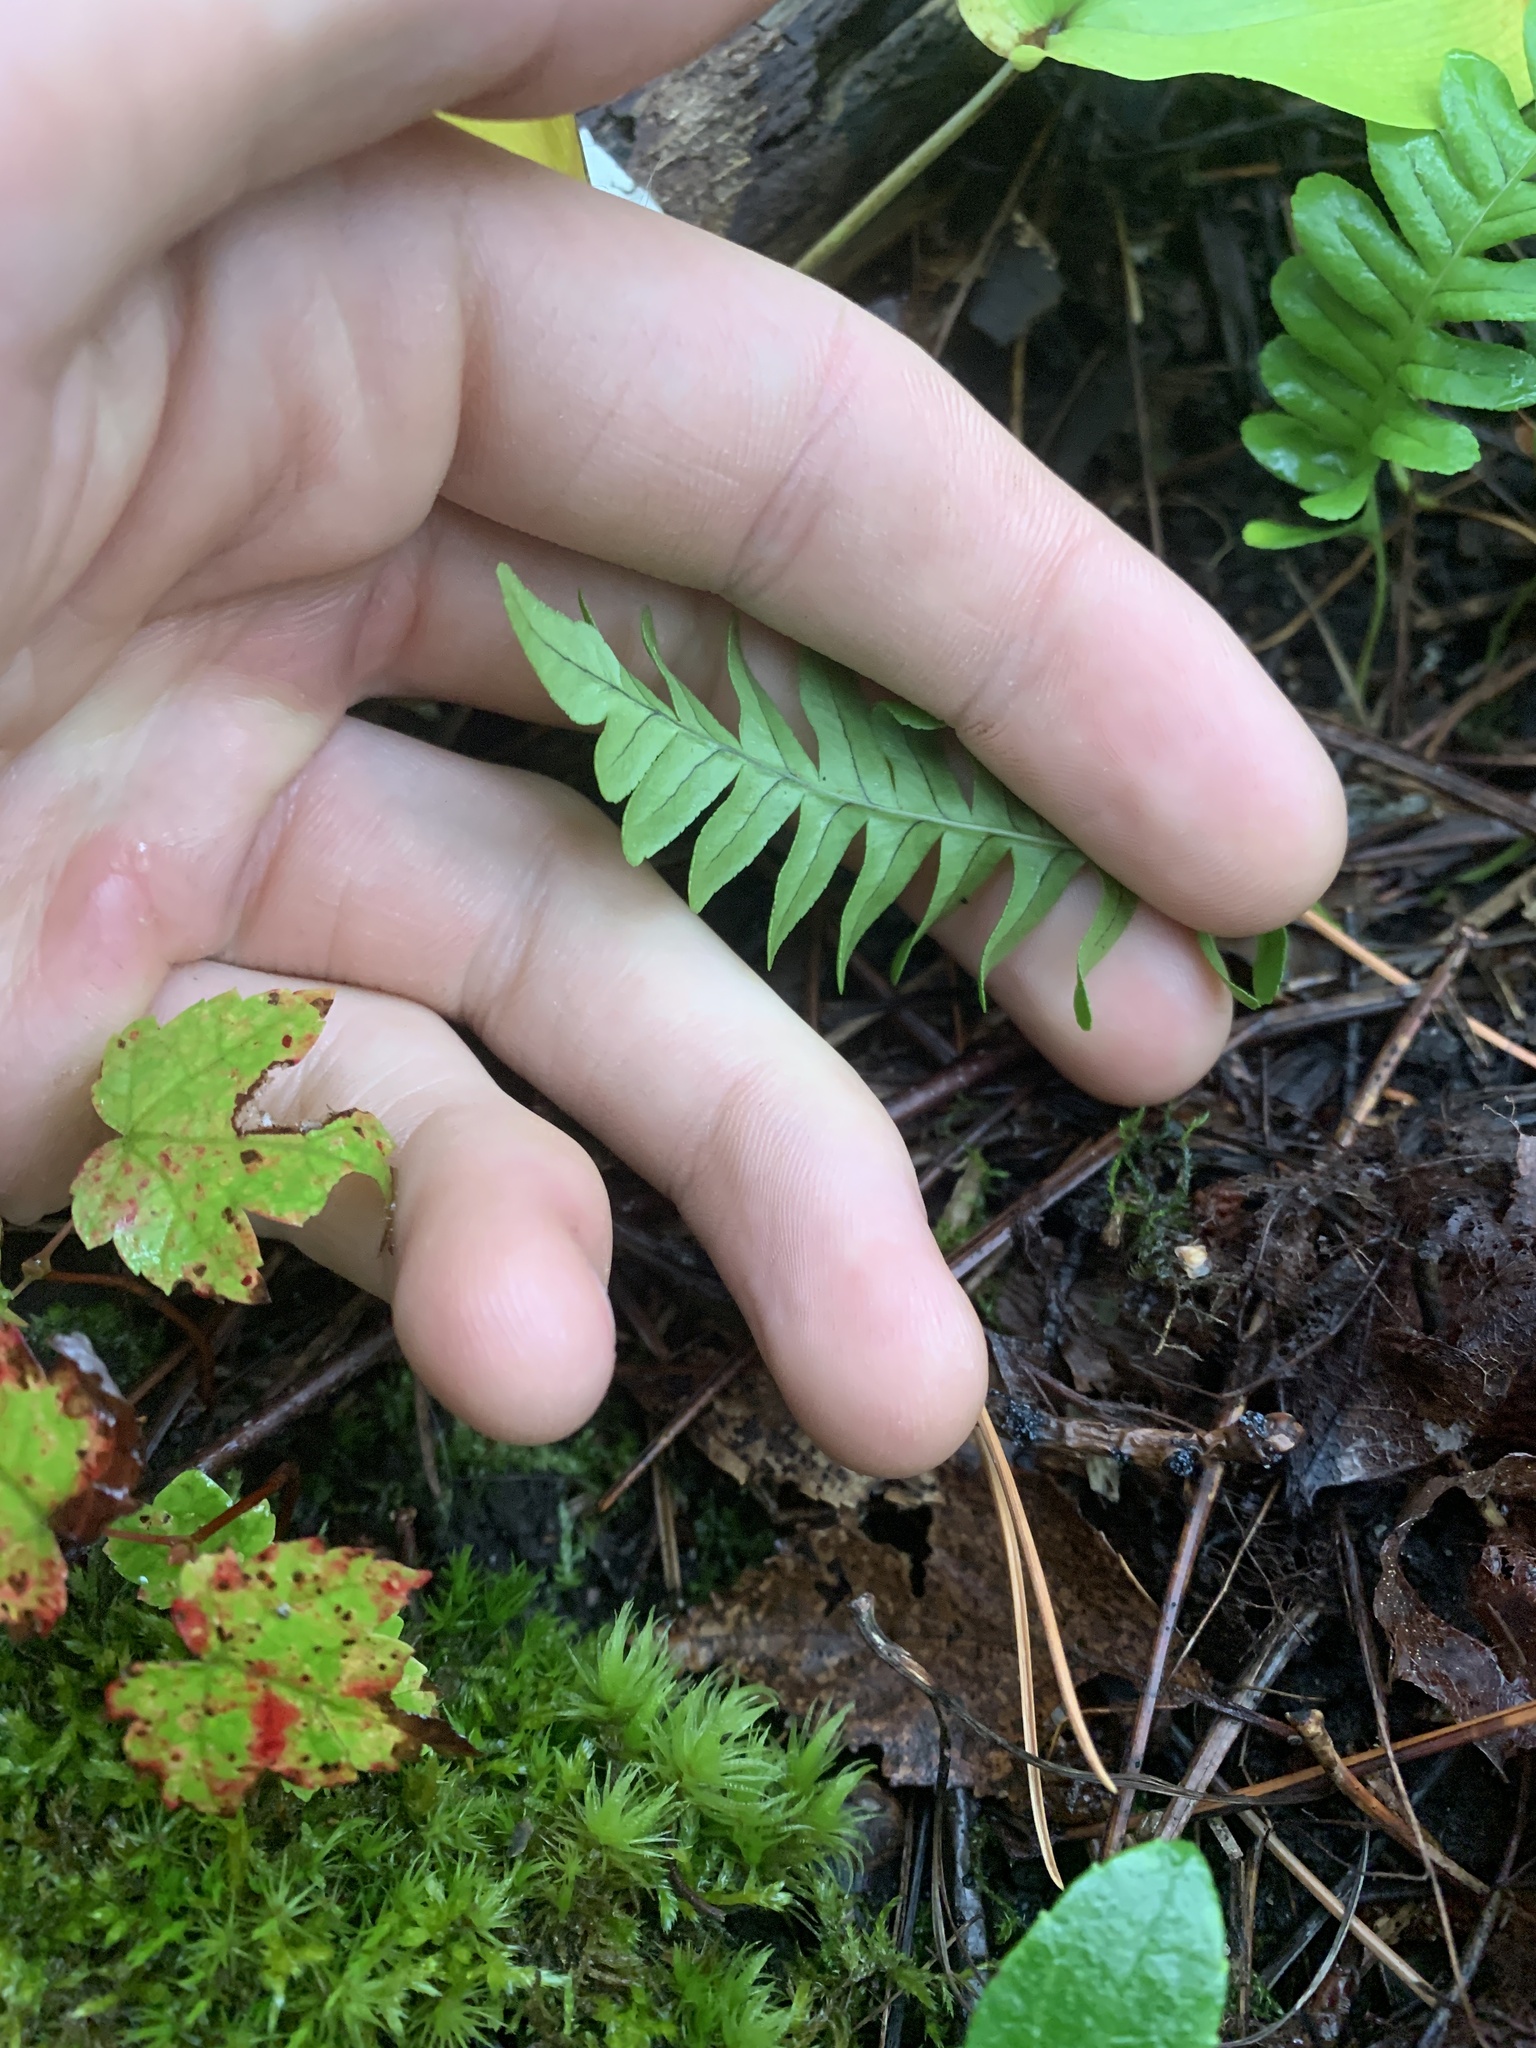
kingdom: Plantae
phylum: Tracheophyta
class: Polypodiopsida
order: Polypodiales
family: Polypodiaceae
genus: Polypodium
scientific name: Polypodium virginianum
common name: American wall fern
